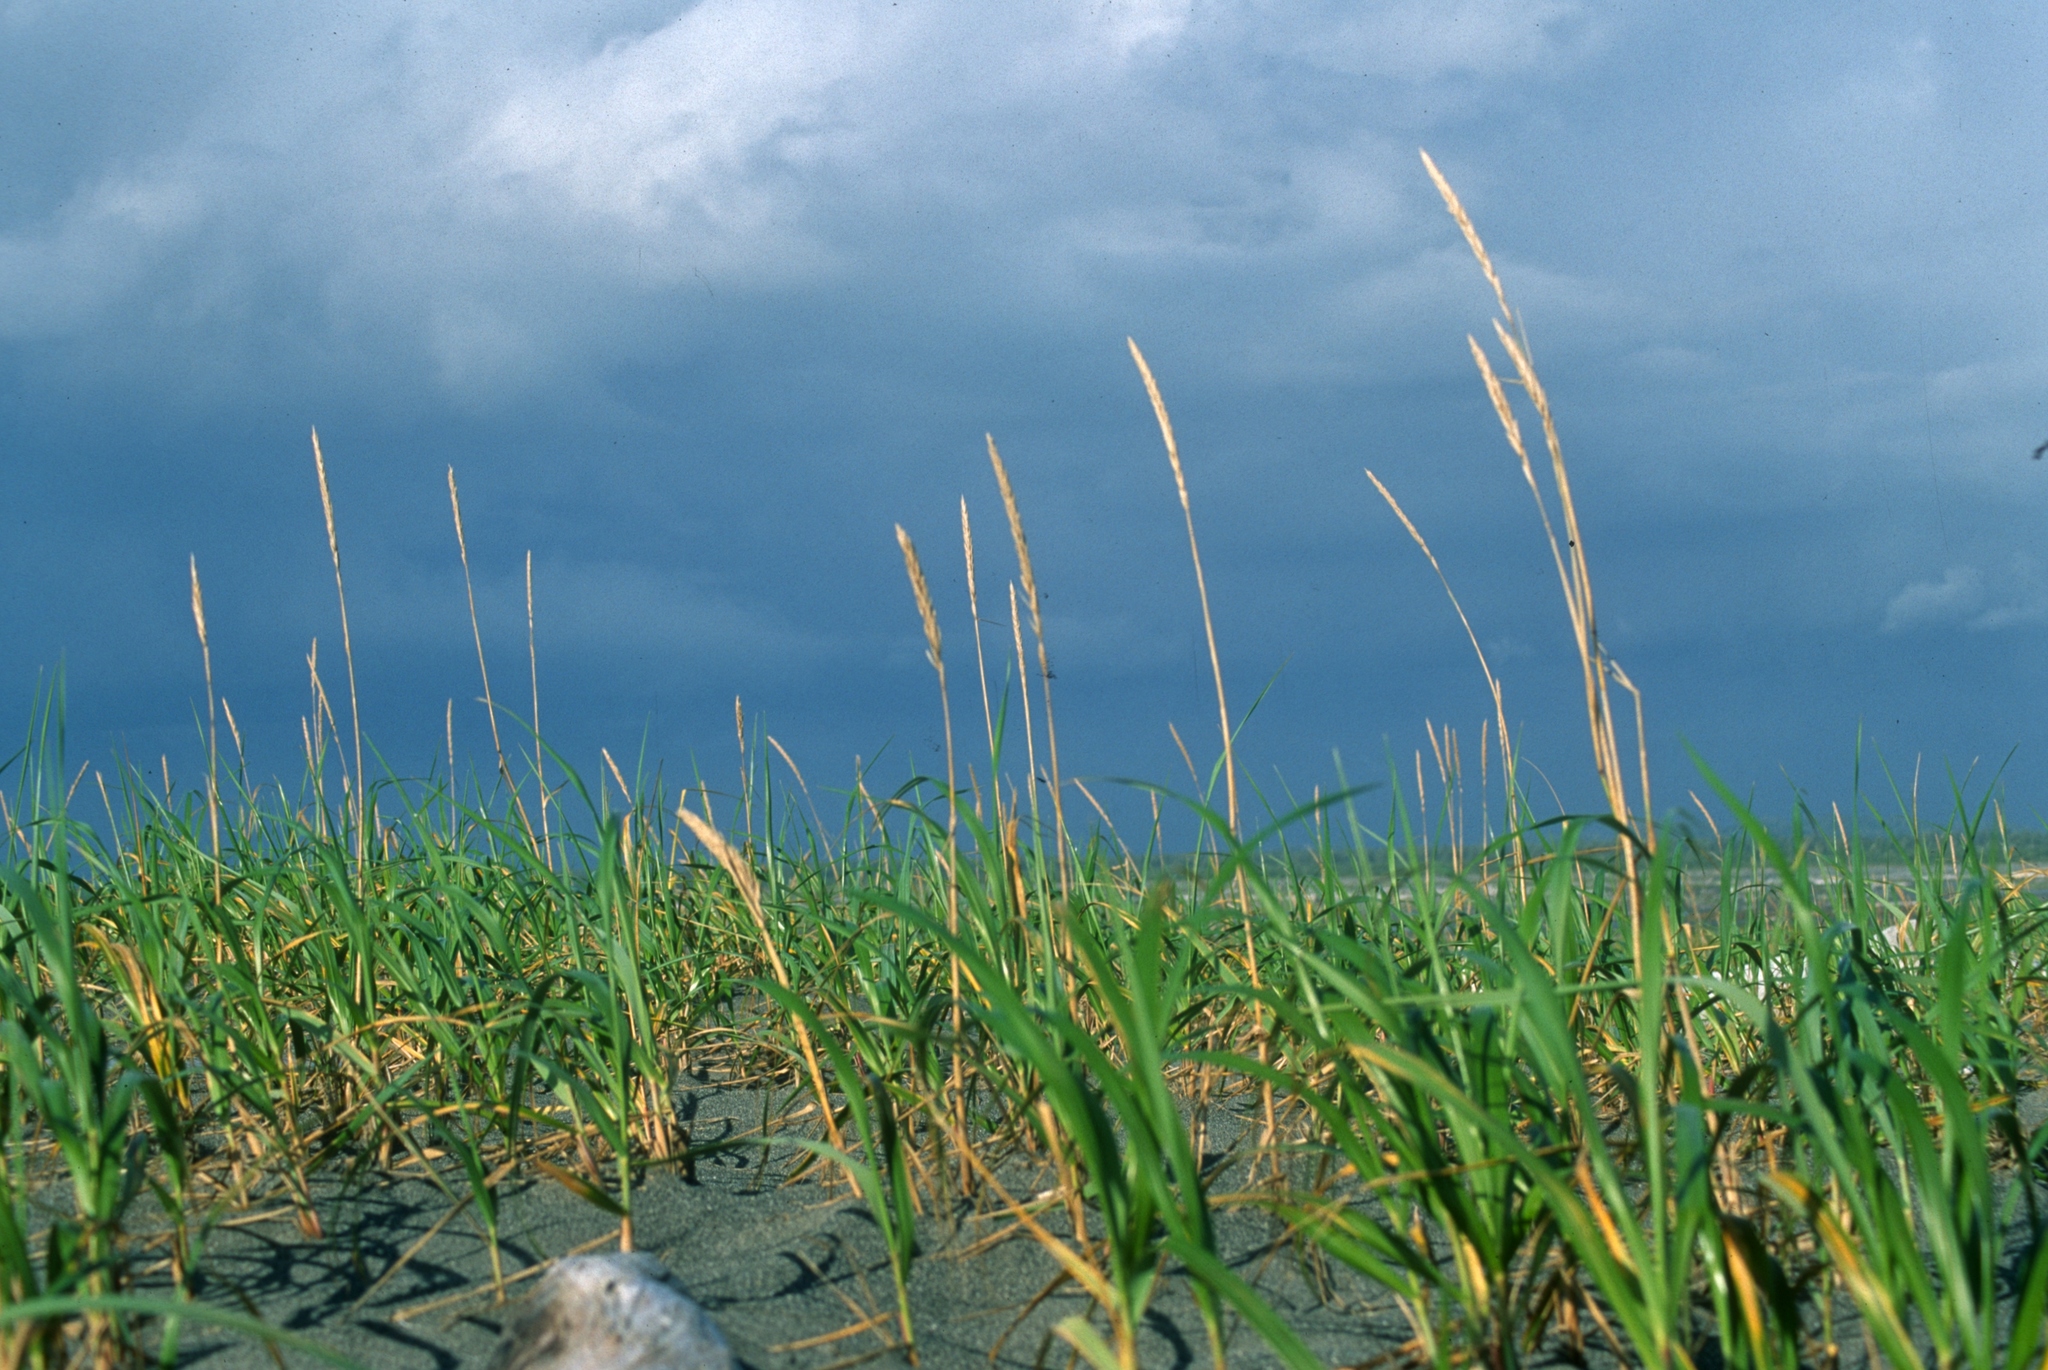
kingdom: Plantae
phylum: Tracheophyta
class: Liliopsida
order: Poales
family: Poaceae
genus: Leymus
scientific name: Leymus mollis
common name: American dune grass
